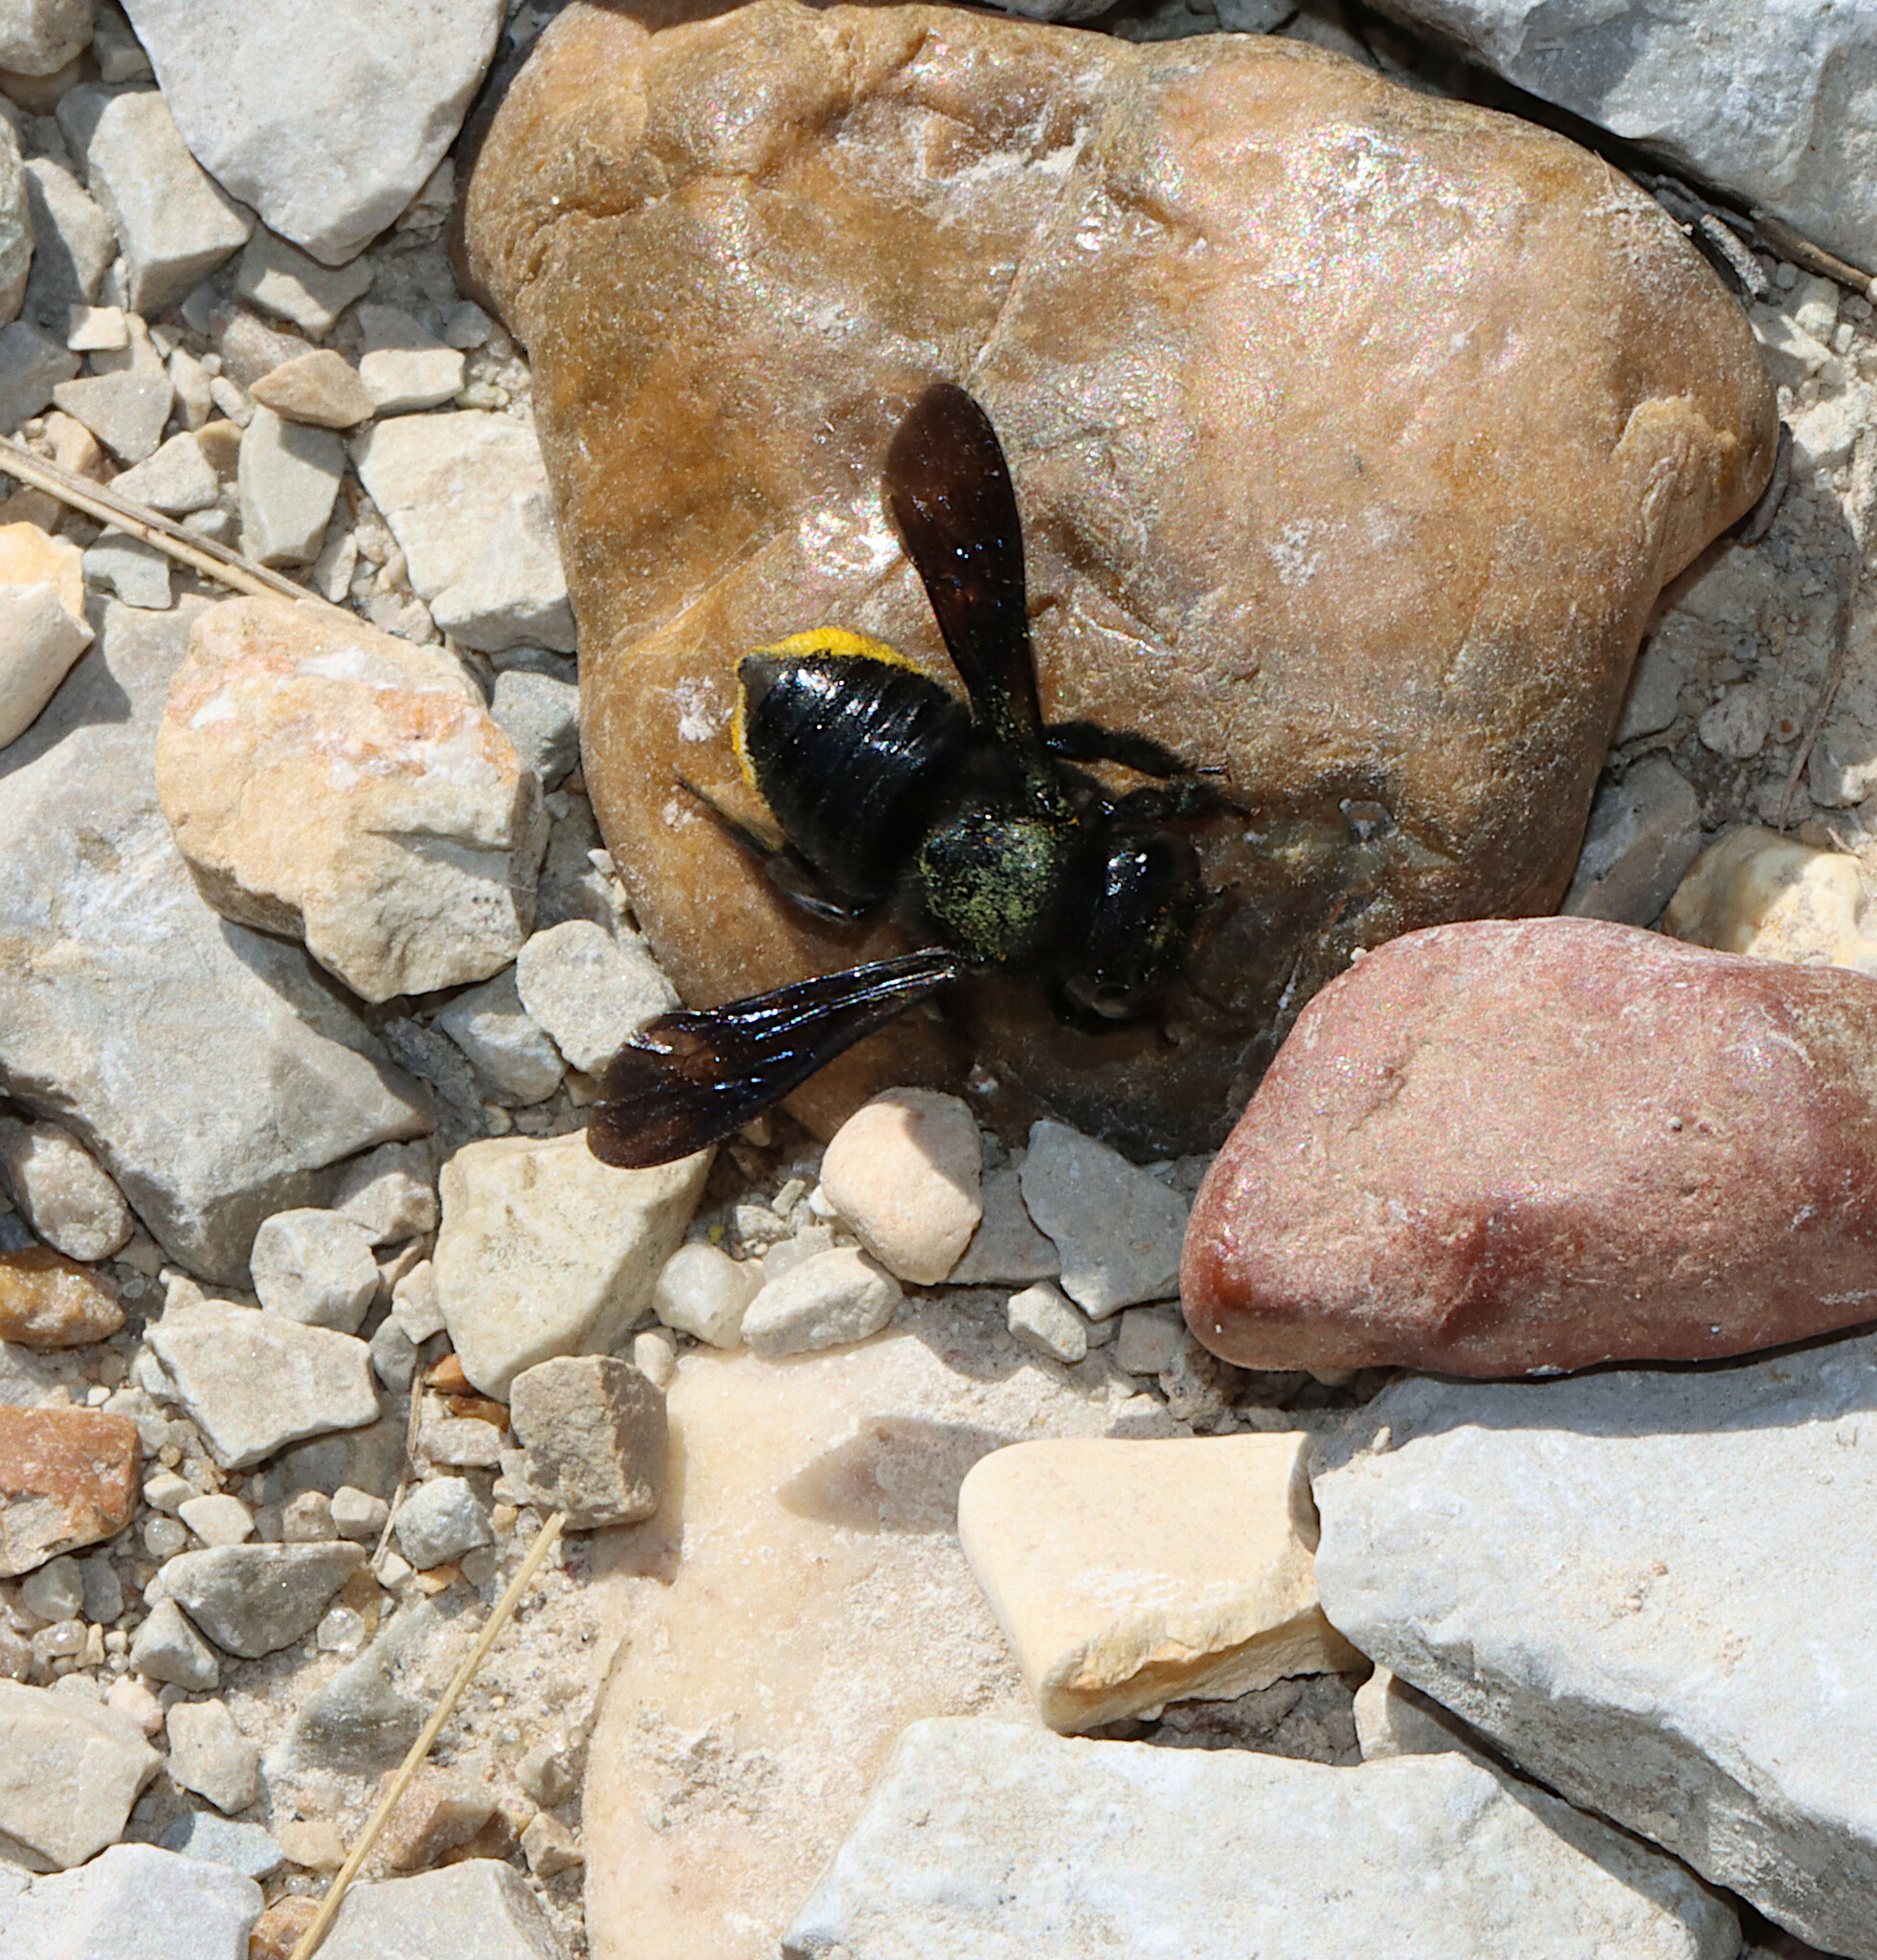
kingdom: Animalia
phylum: Arthropoda
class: Insecta
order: Hymenoptera
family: Megachilidae
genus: Megachile
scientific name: Megachile xylocopoides
